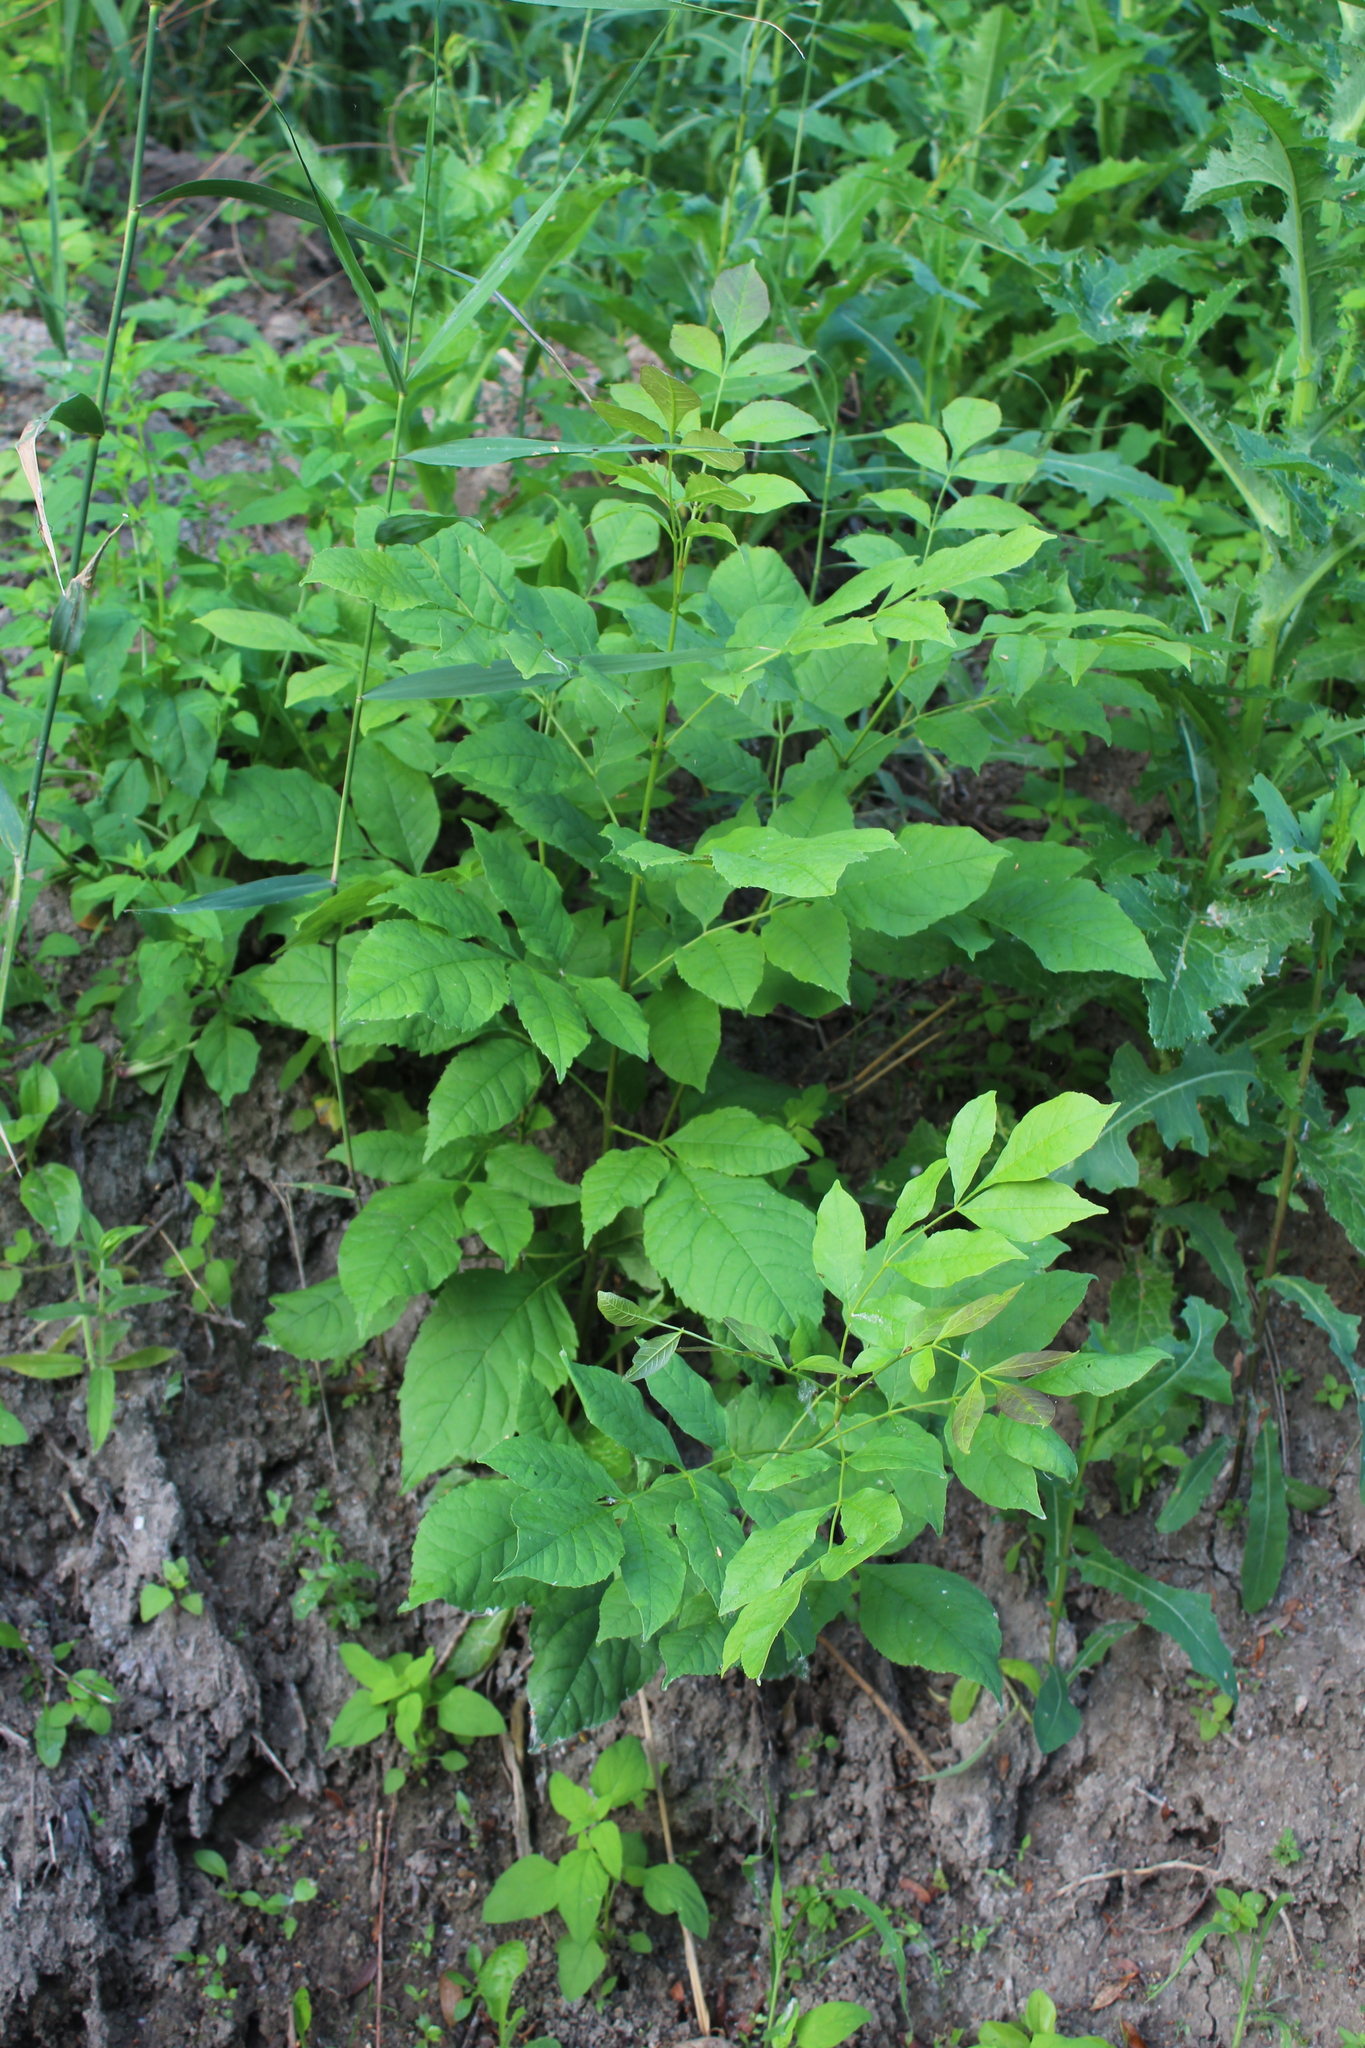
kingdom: Plantae
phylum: Tracheophyta
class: Magnoliopsida
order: Lamiales
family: Oleaceae
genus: Fraxinus
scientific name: Fraxinus pennsylvanica
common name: Green ash
